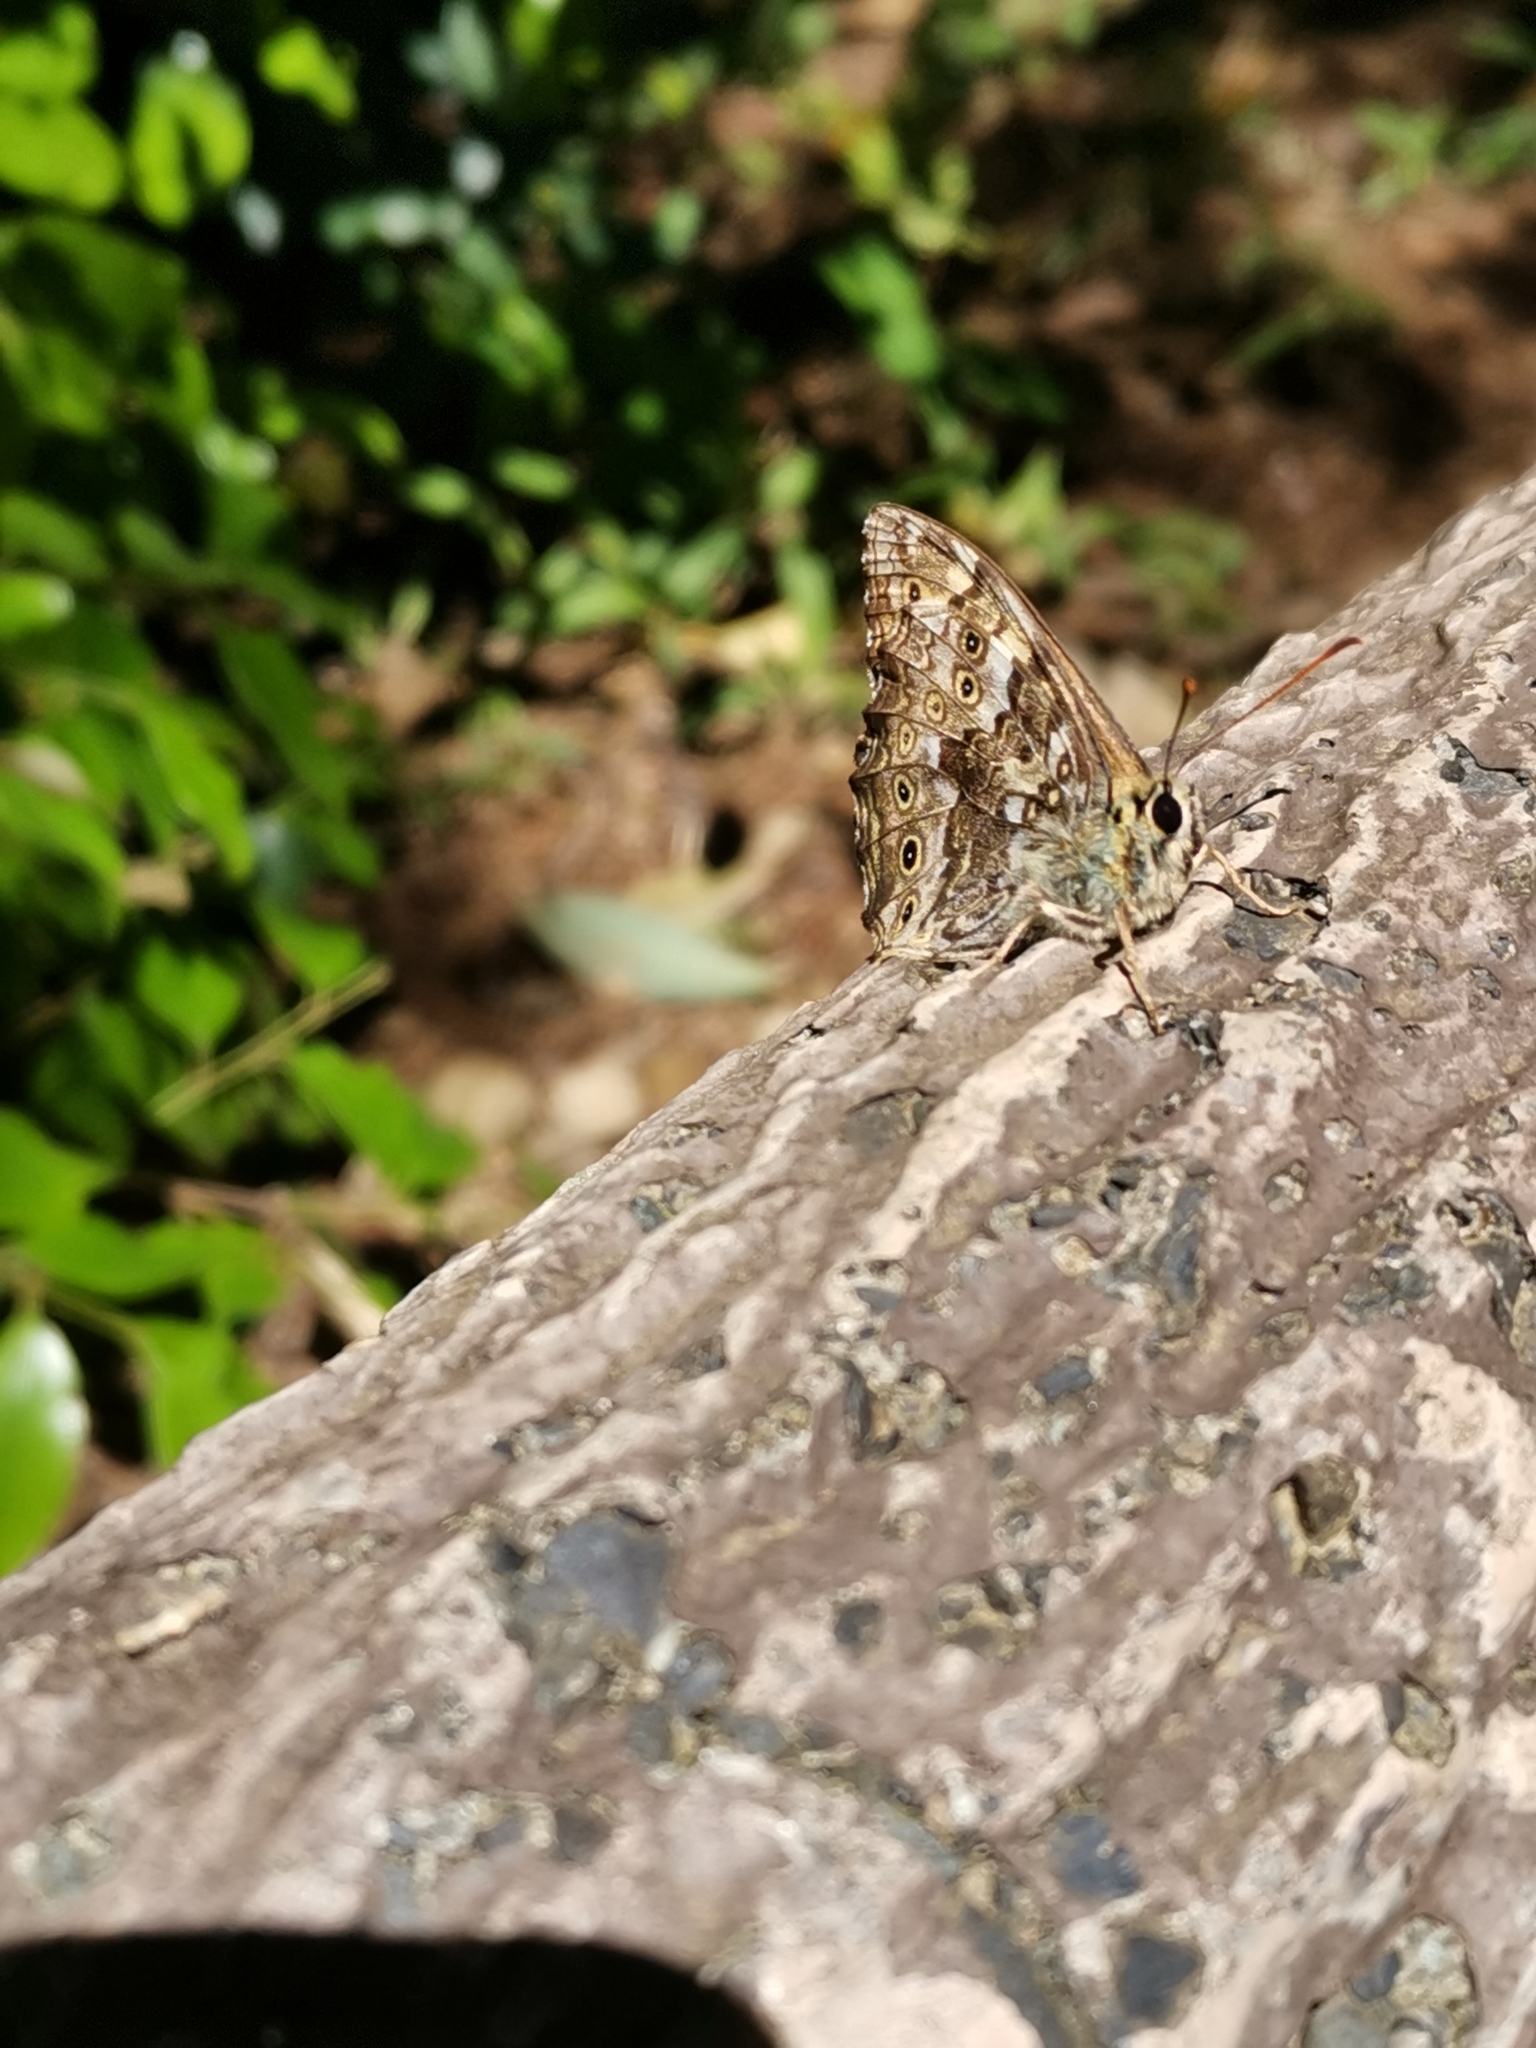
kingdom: Animalia
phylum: Arthropoda
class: Insecta
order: Lepidoptera
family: Nymphalidae
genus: Neope
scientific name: Neope goschkevitschii
